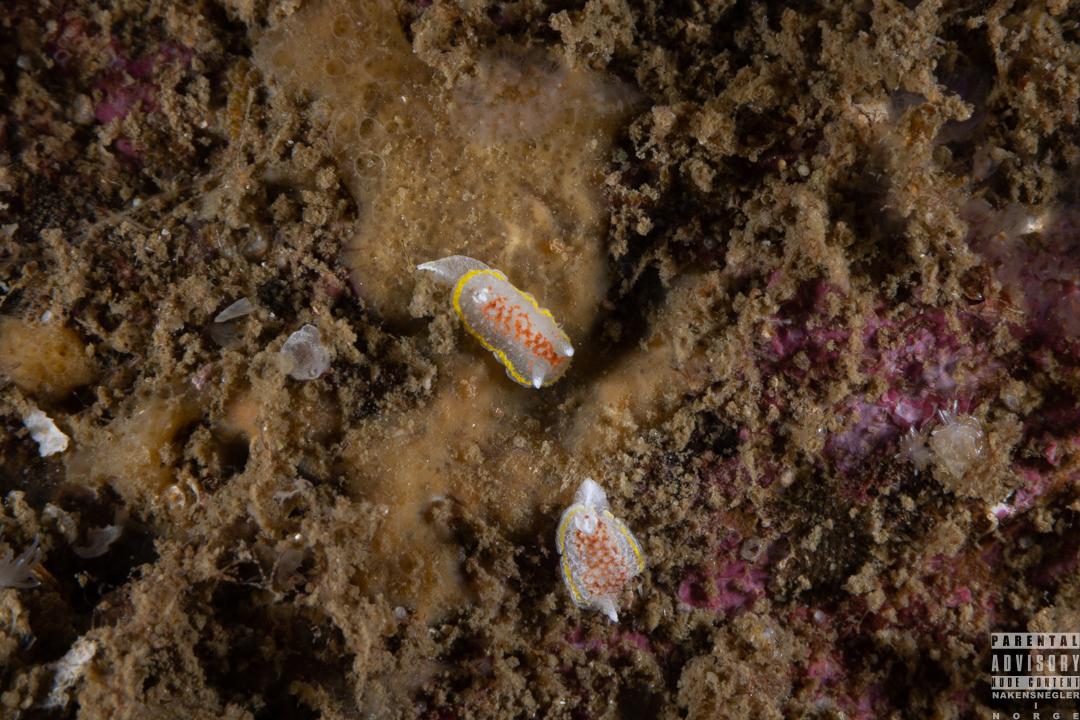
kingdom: Animalia
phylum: Mollusca
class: Gastropoda
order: Nudibranchia
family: Calycidorididae
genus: Diaphorodoris
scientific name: Diaphorodoris luteocincta
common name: Fried egg nudibranch
